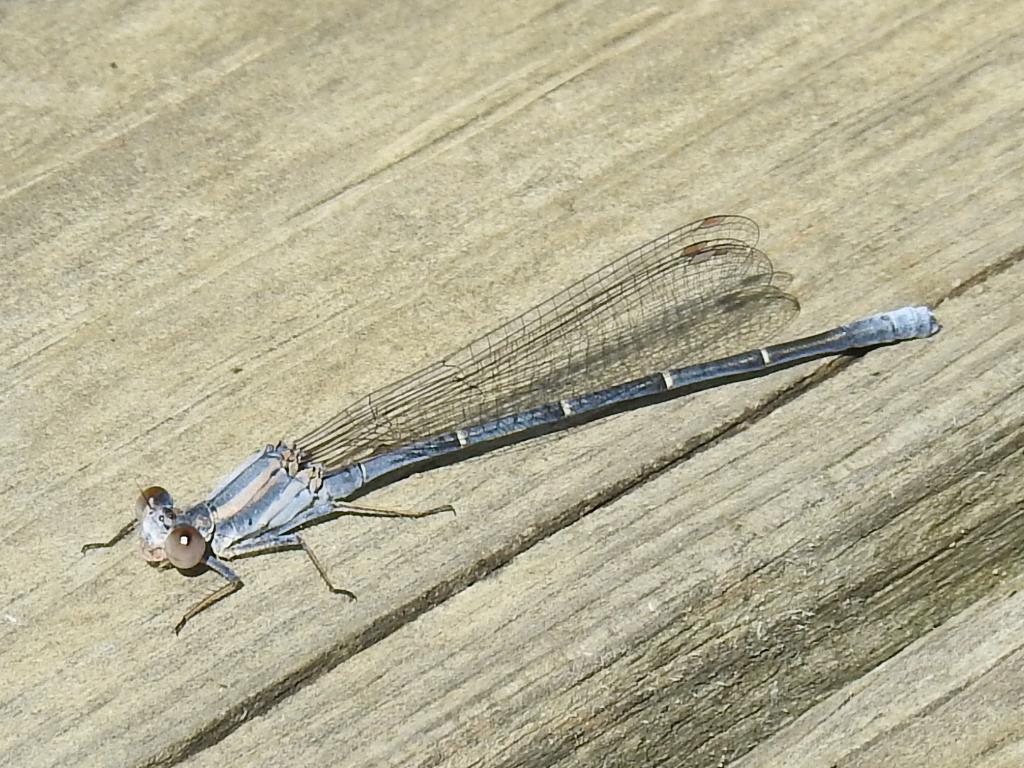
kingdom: Animalia
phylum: Arthropoda
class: Insecta
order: Odonata
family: Coenagrionidae
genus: Argia
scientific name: Argia moesta
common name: Powdered dancer
